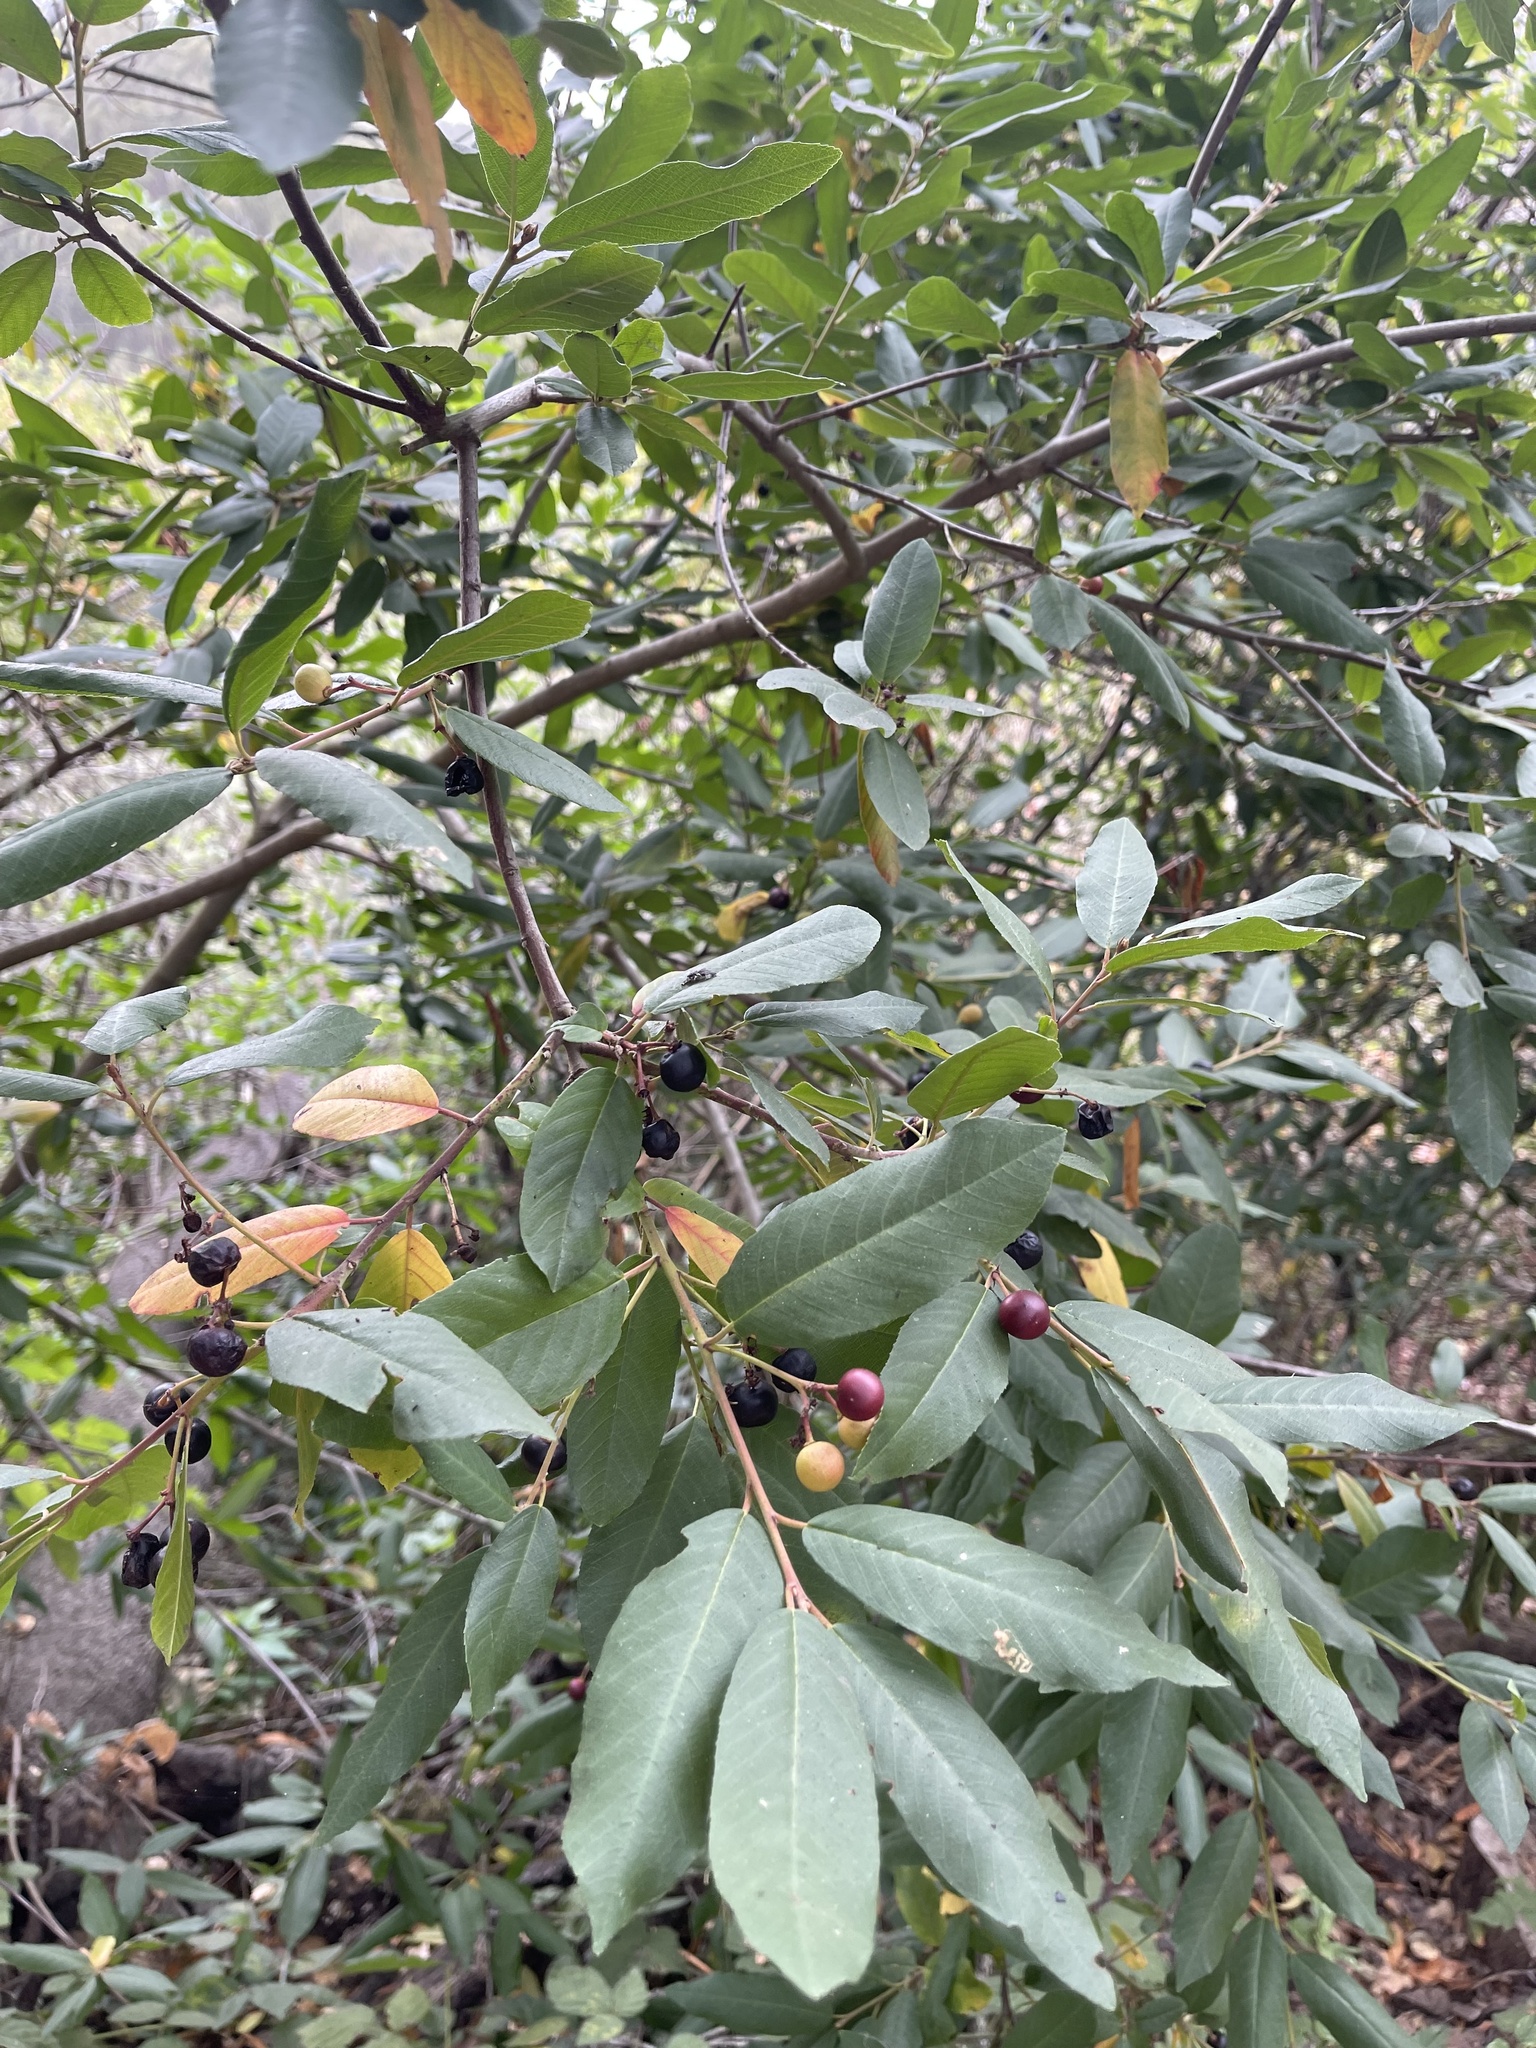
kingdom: Plantae
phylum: Tracheophyta
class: Magnoliopsida
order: Rosales
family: Rhamnaceae
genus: Frangula
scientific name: Frangula californica
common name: California buckthorn
